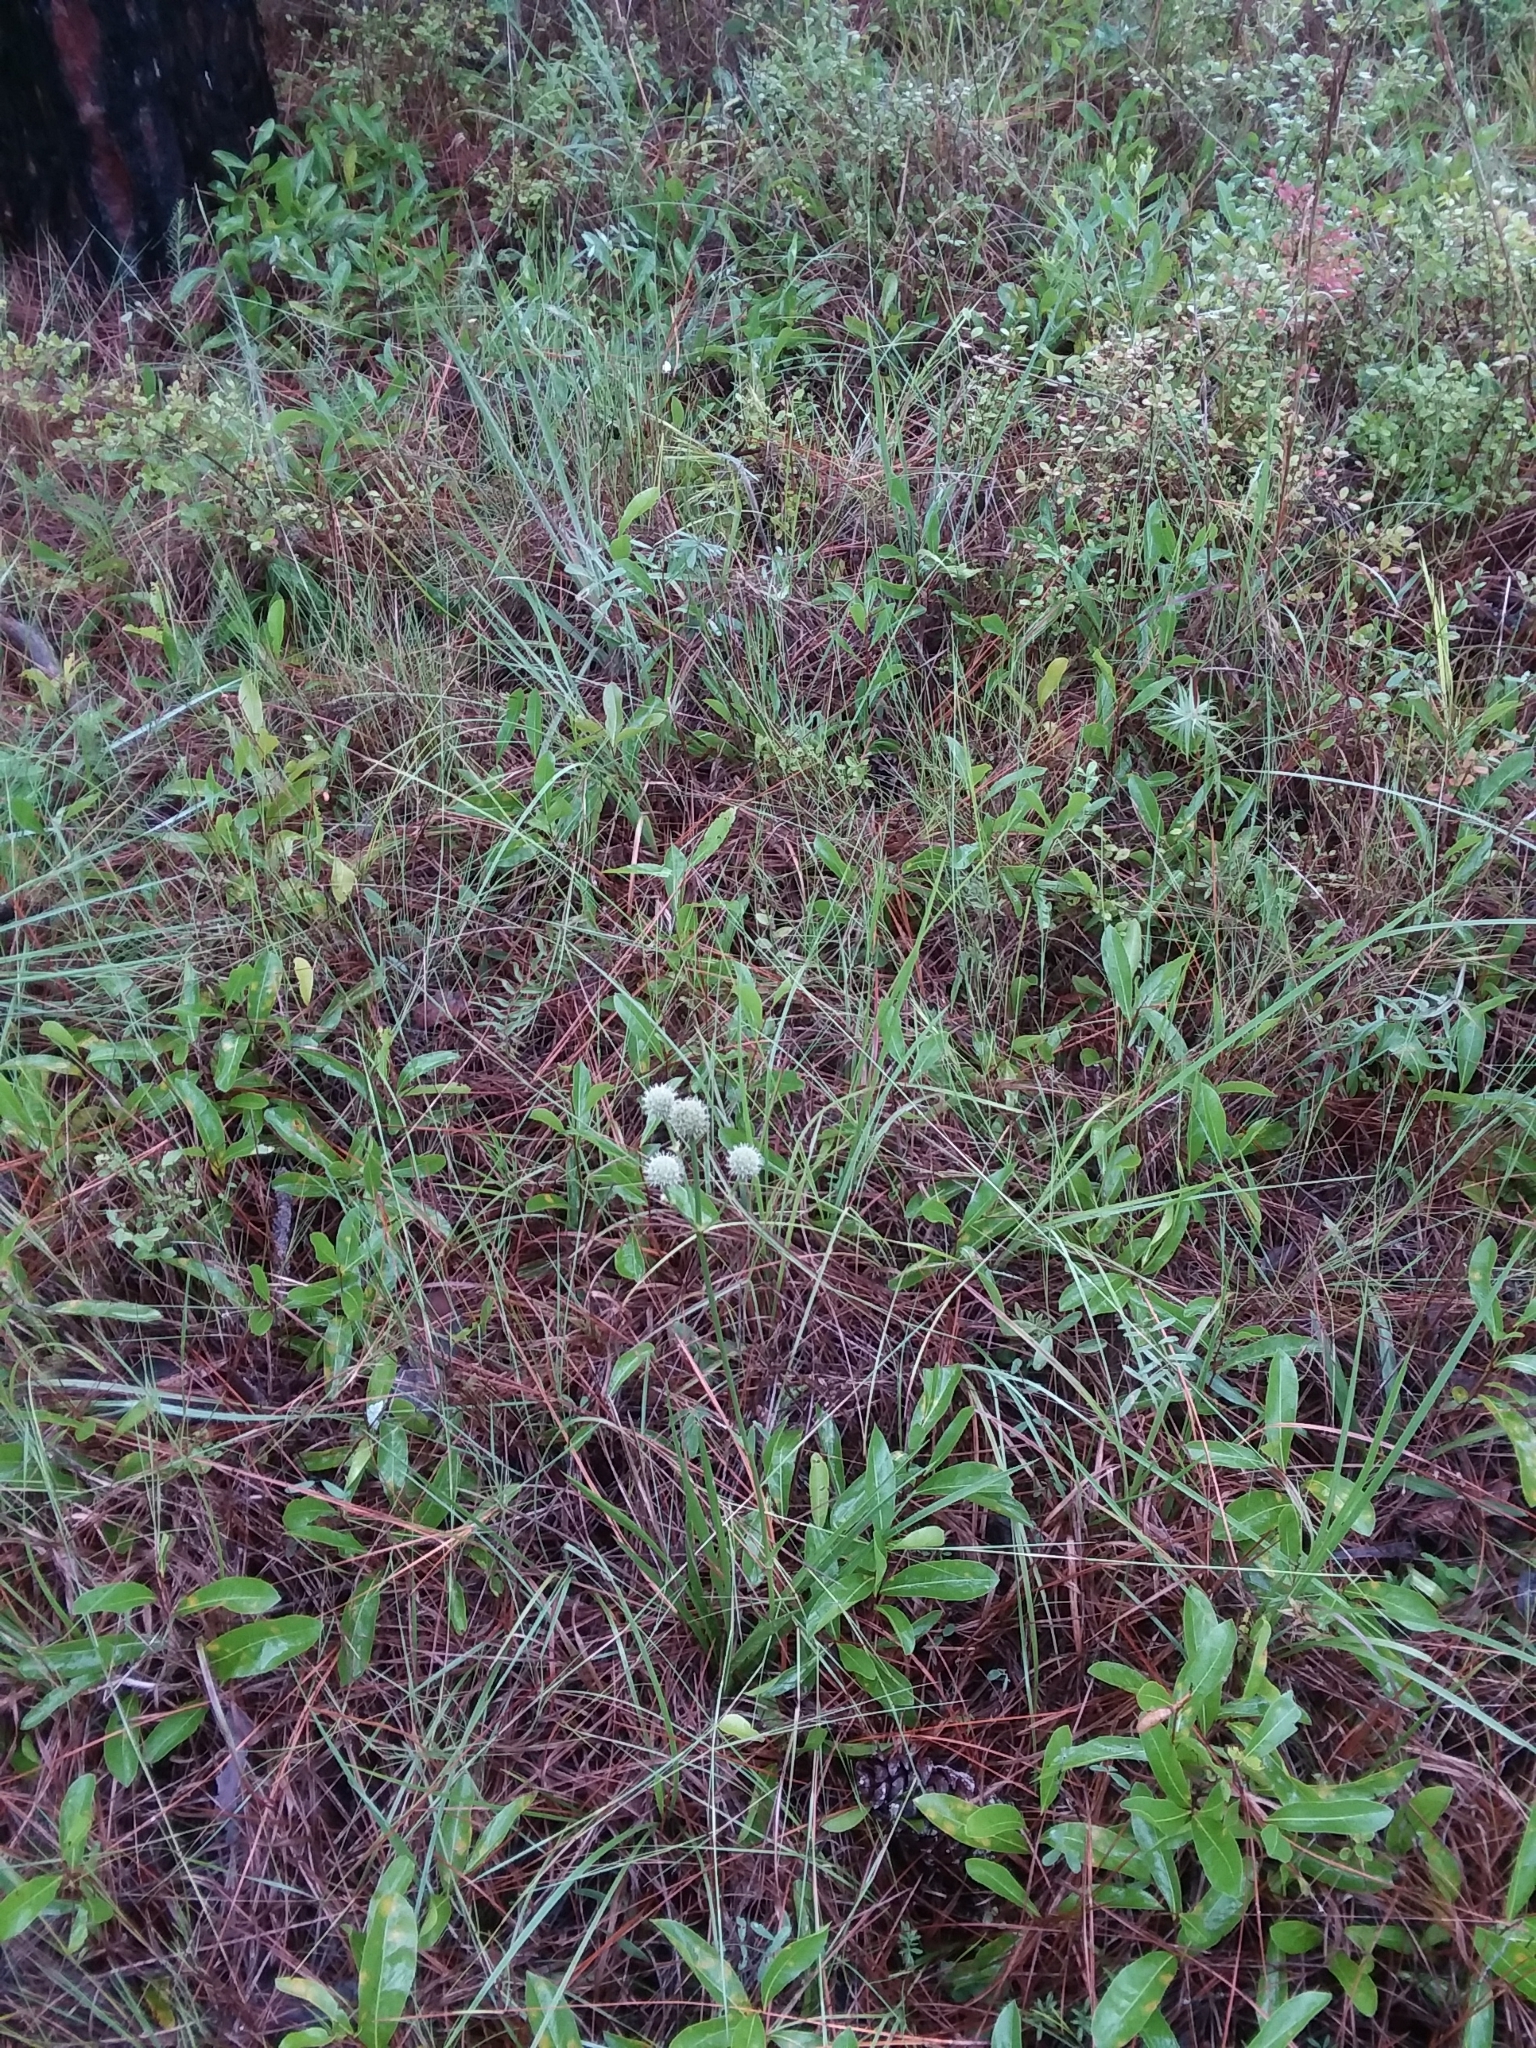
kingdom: Plantae
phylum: Tracheophyta
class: Magnoliopsida
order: Apiales
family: Apiaceae
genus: Eryngium
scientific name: Eryngium yuccifolium
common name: Button eryngo
